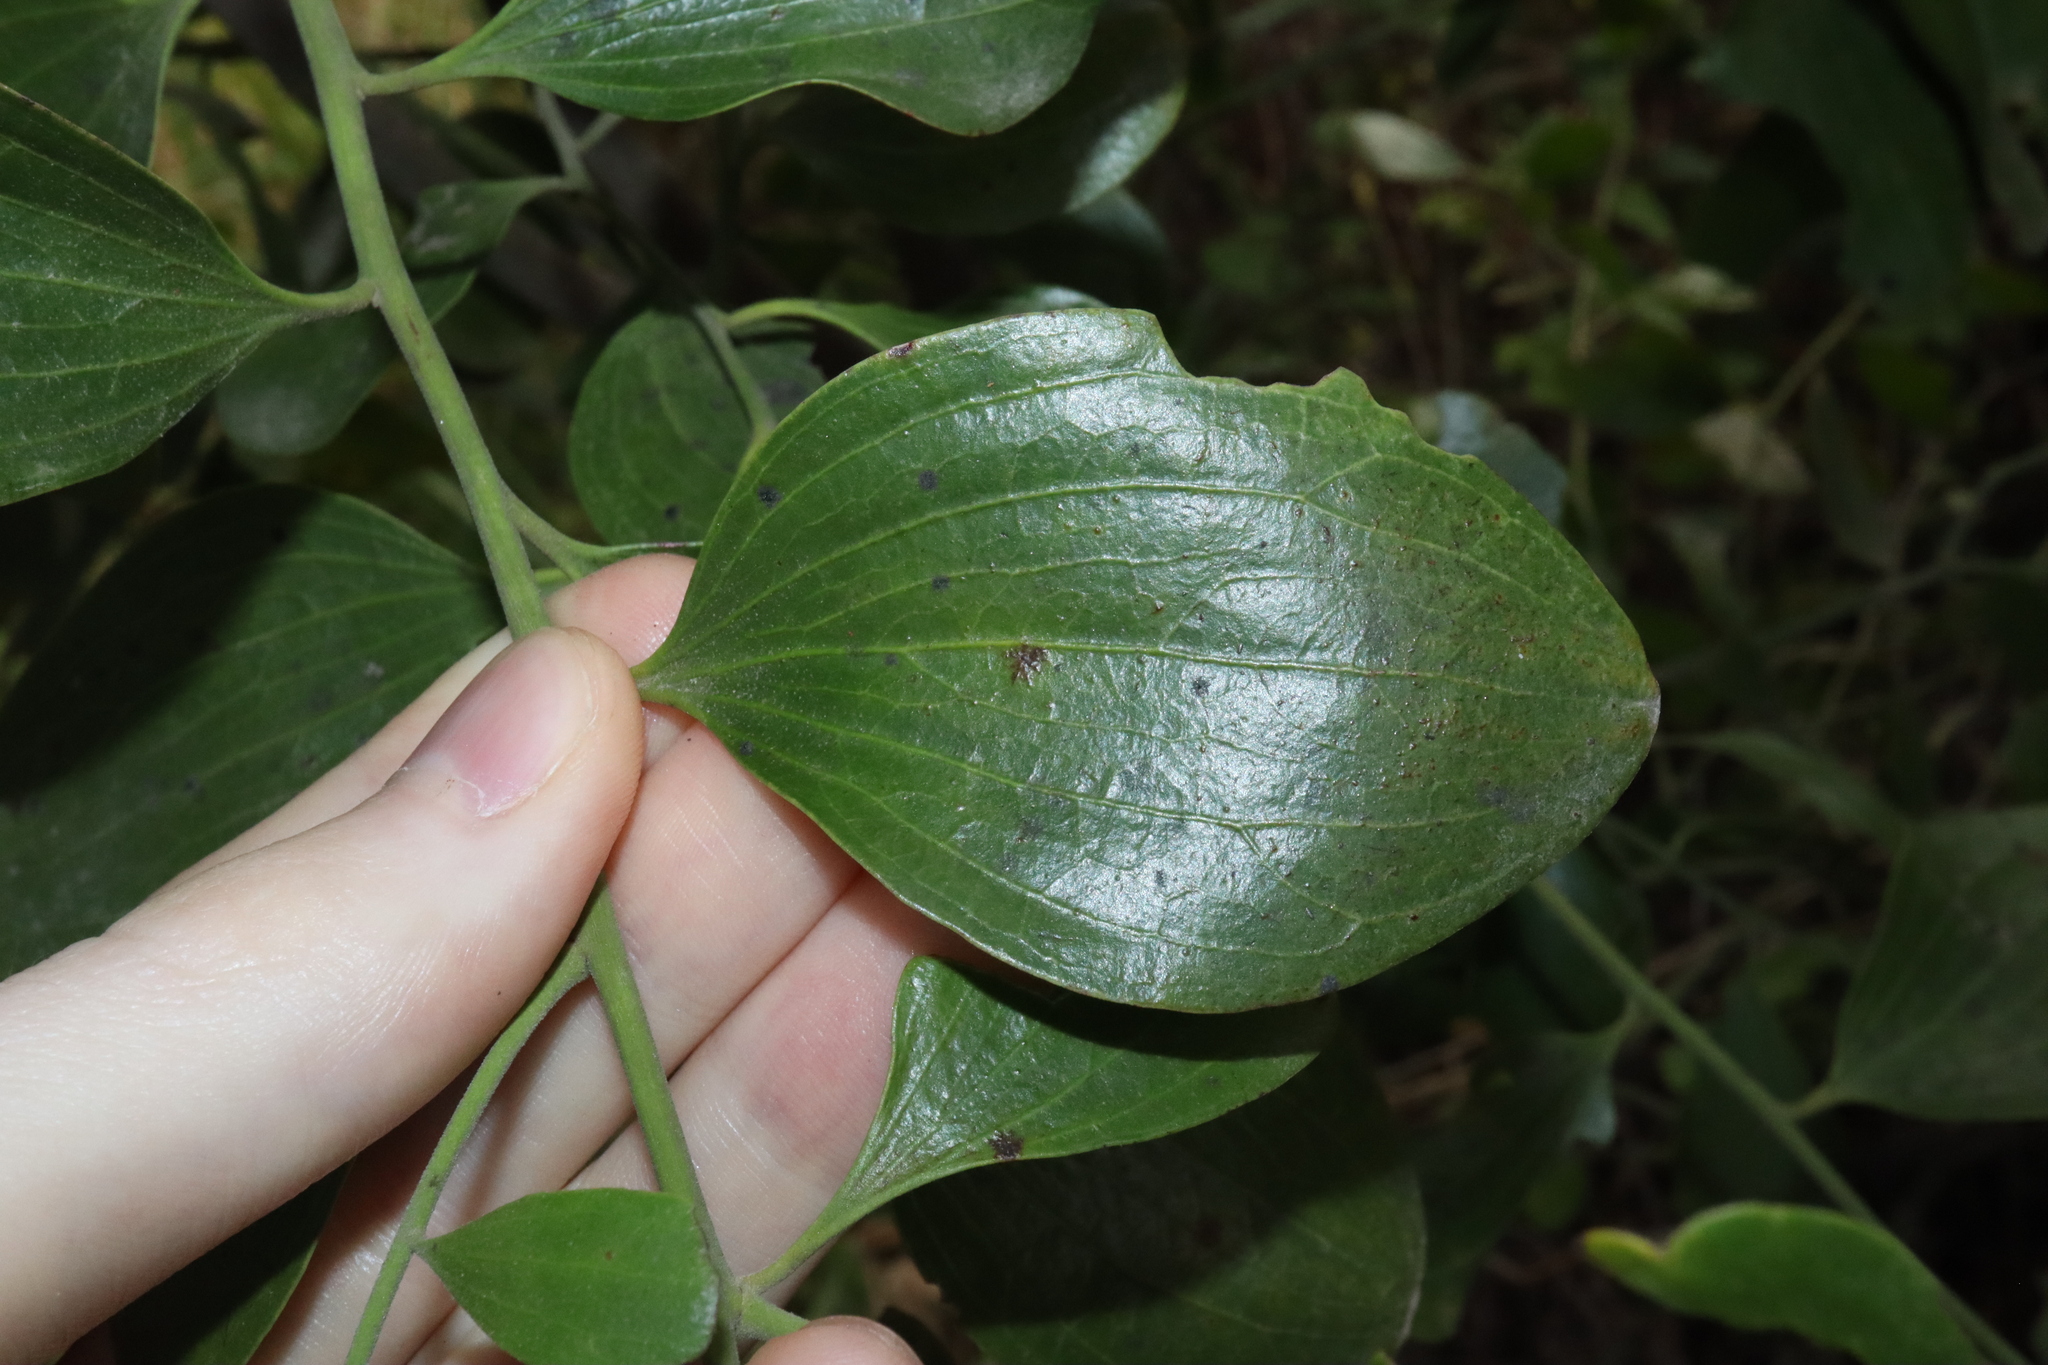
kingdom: Plantae
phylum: Tracheophyta
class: Magnoliopsida
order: Santalales
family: Santalaceae
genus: Exocarpos
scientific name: Exocarpos latifolius
